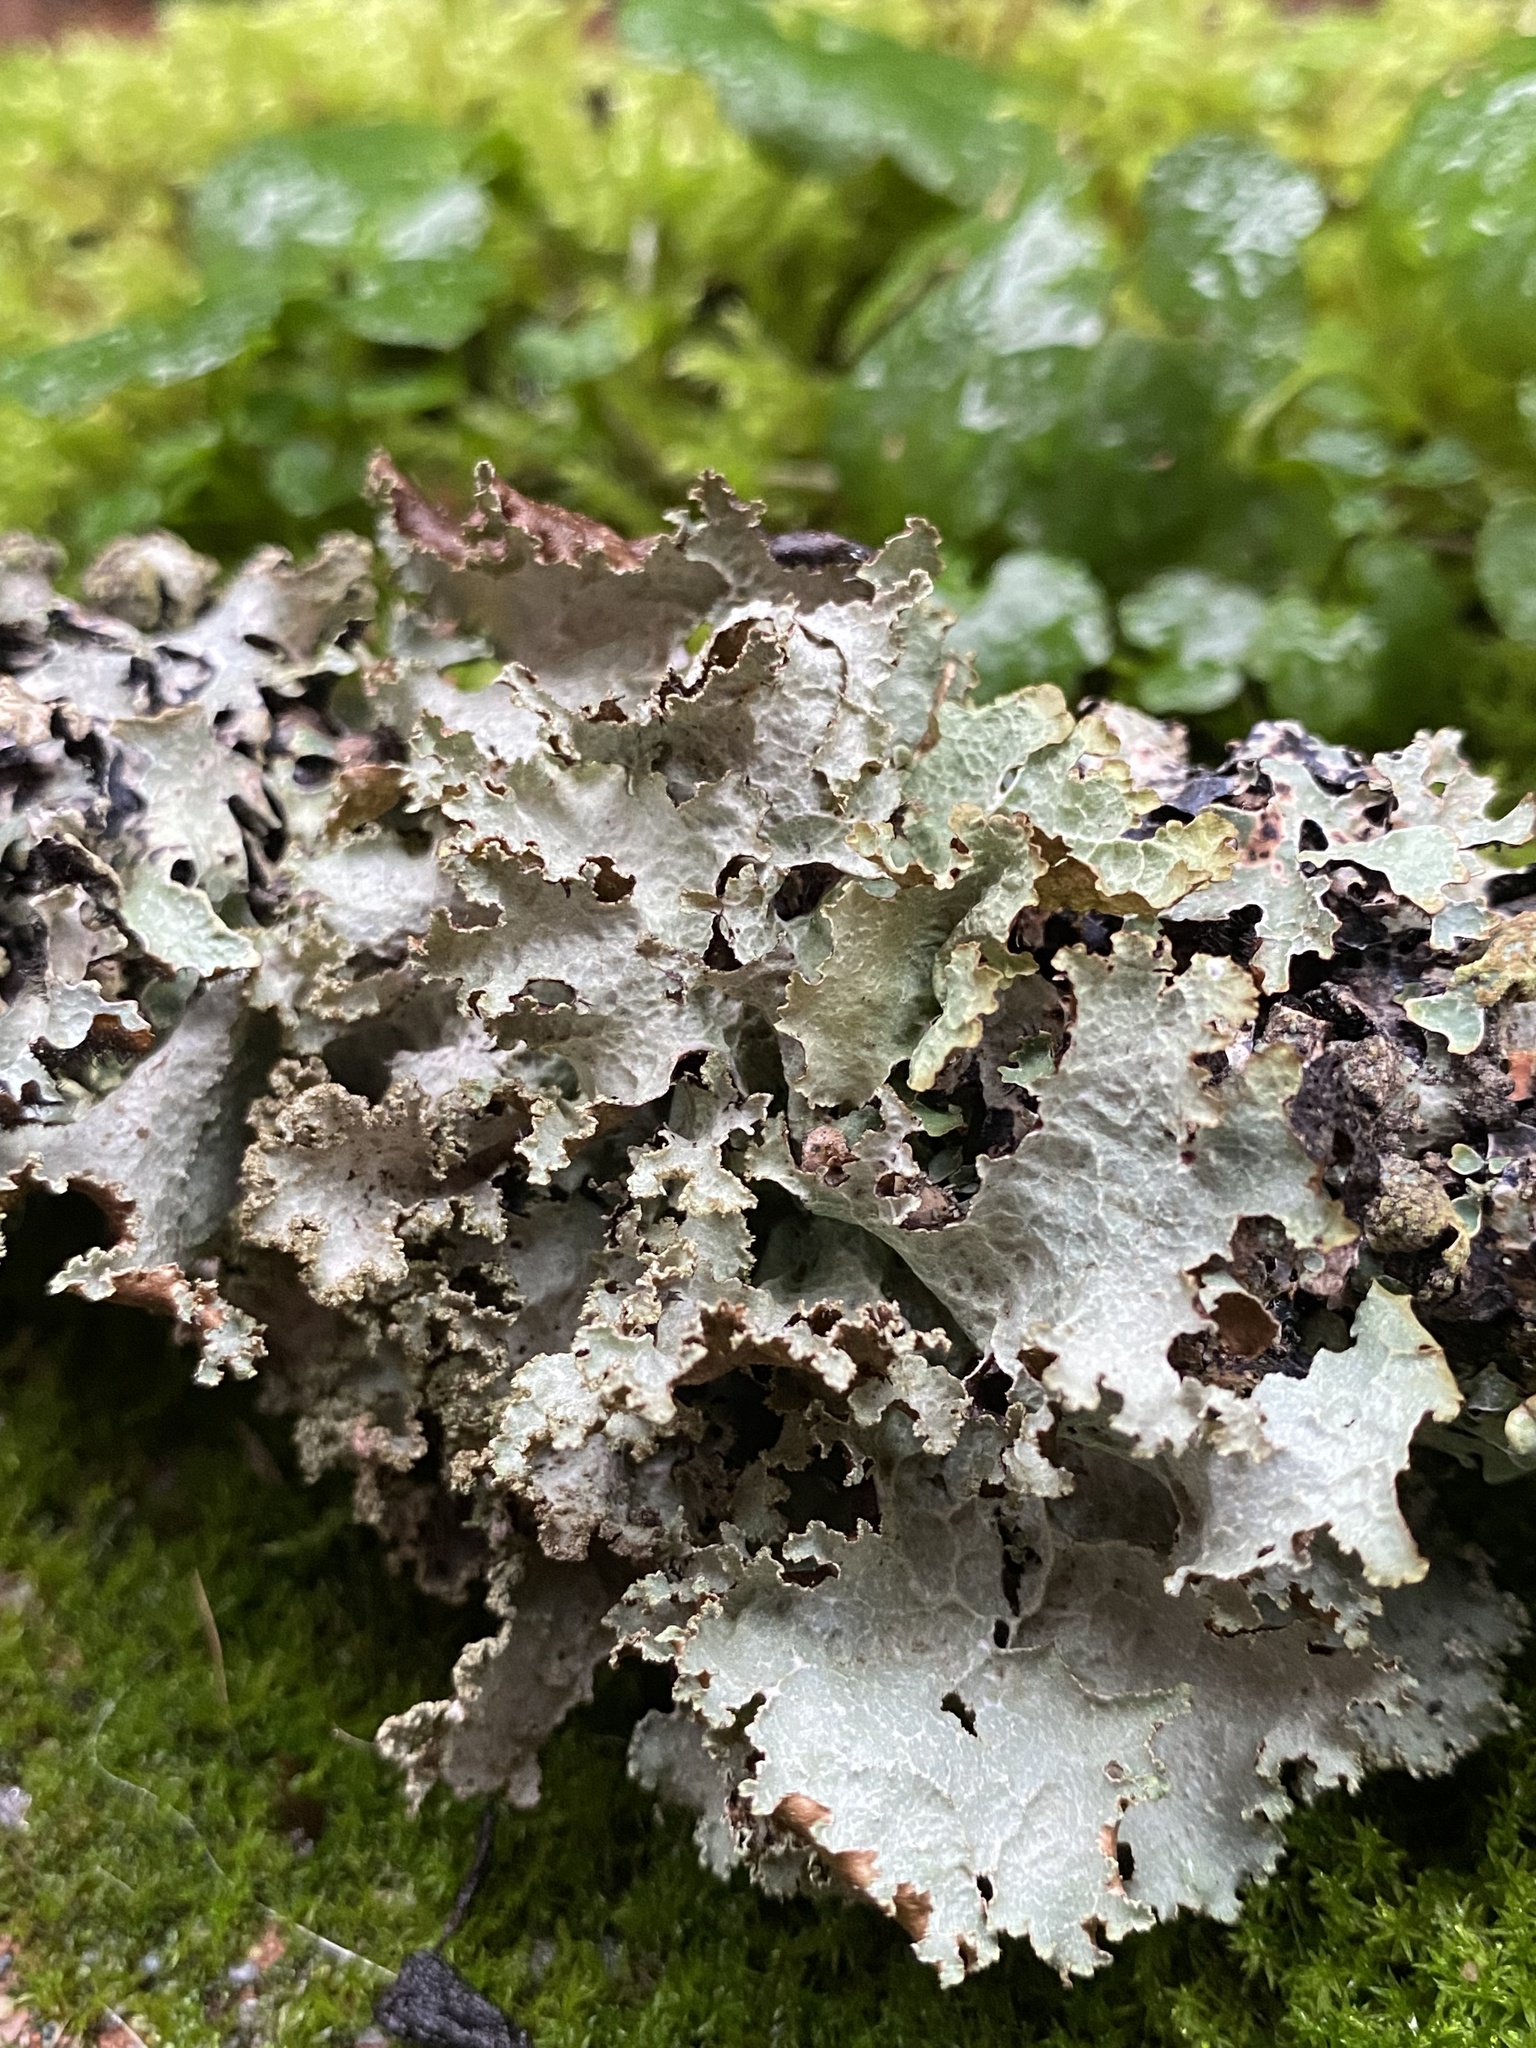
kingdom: Fungi
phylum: Ascomycota
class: Lecanoromycetes
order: Lecanorales
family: Parmeliaceae
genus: Platismatia
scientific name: Platismatia glauca
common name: Varied rag lichen
